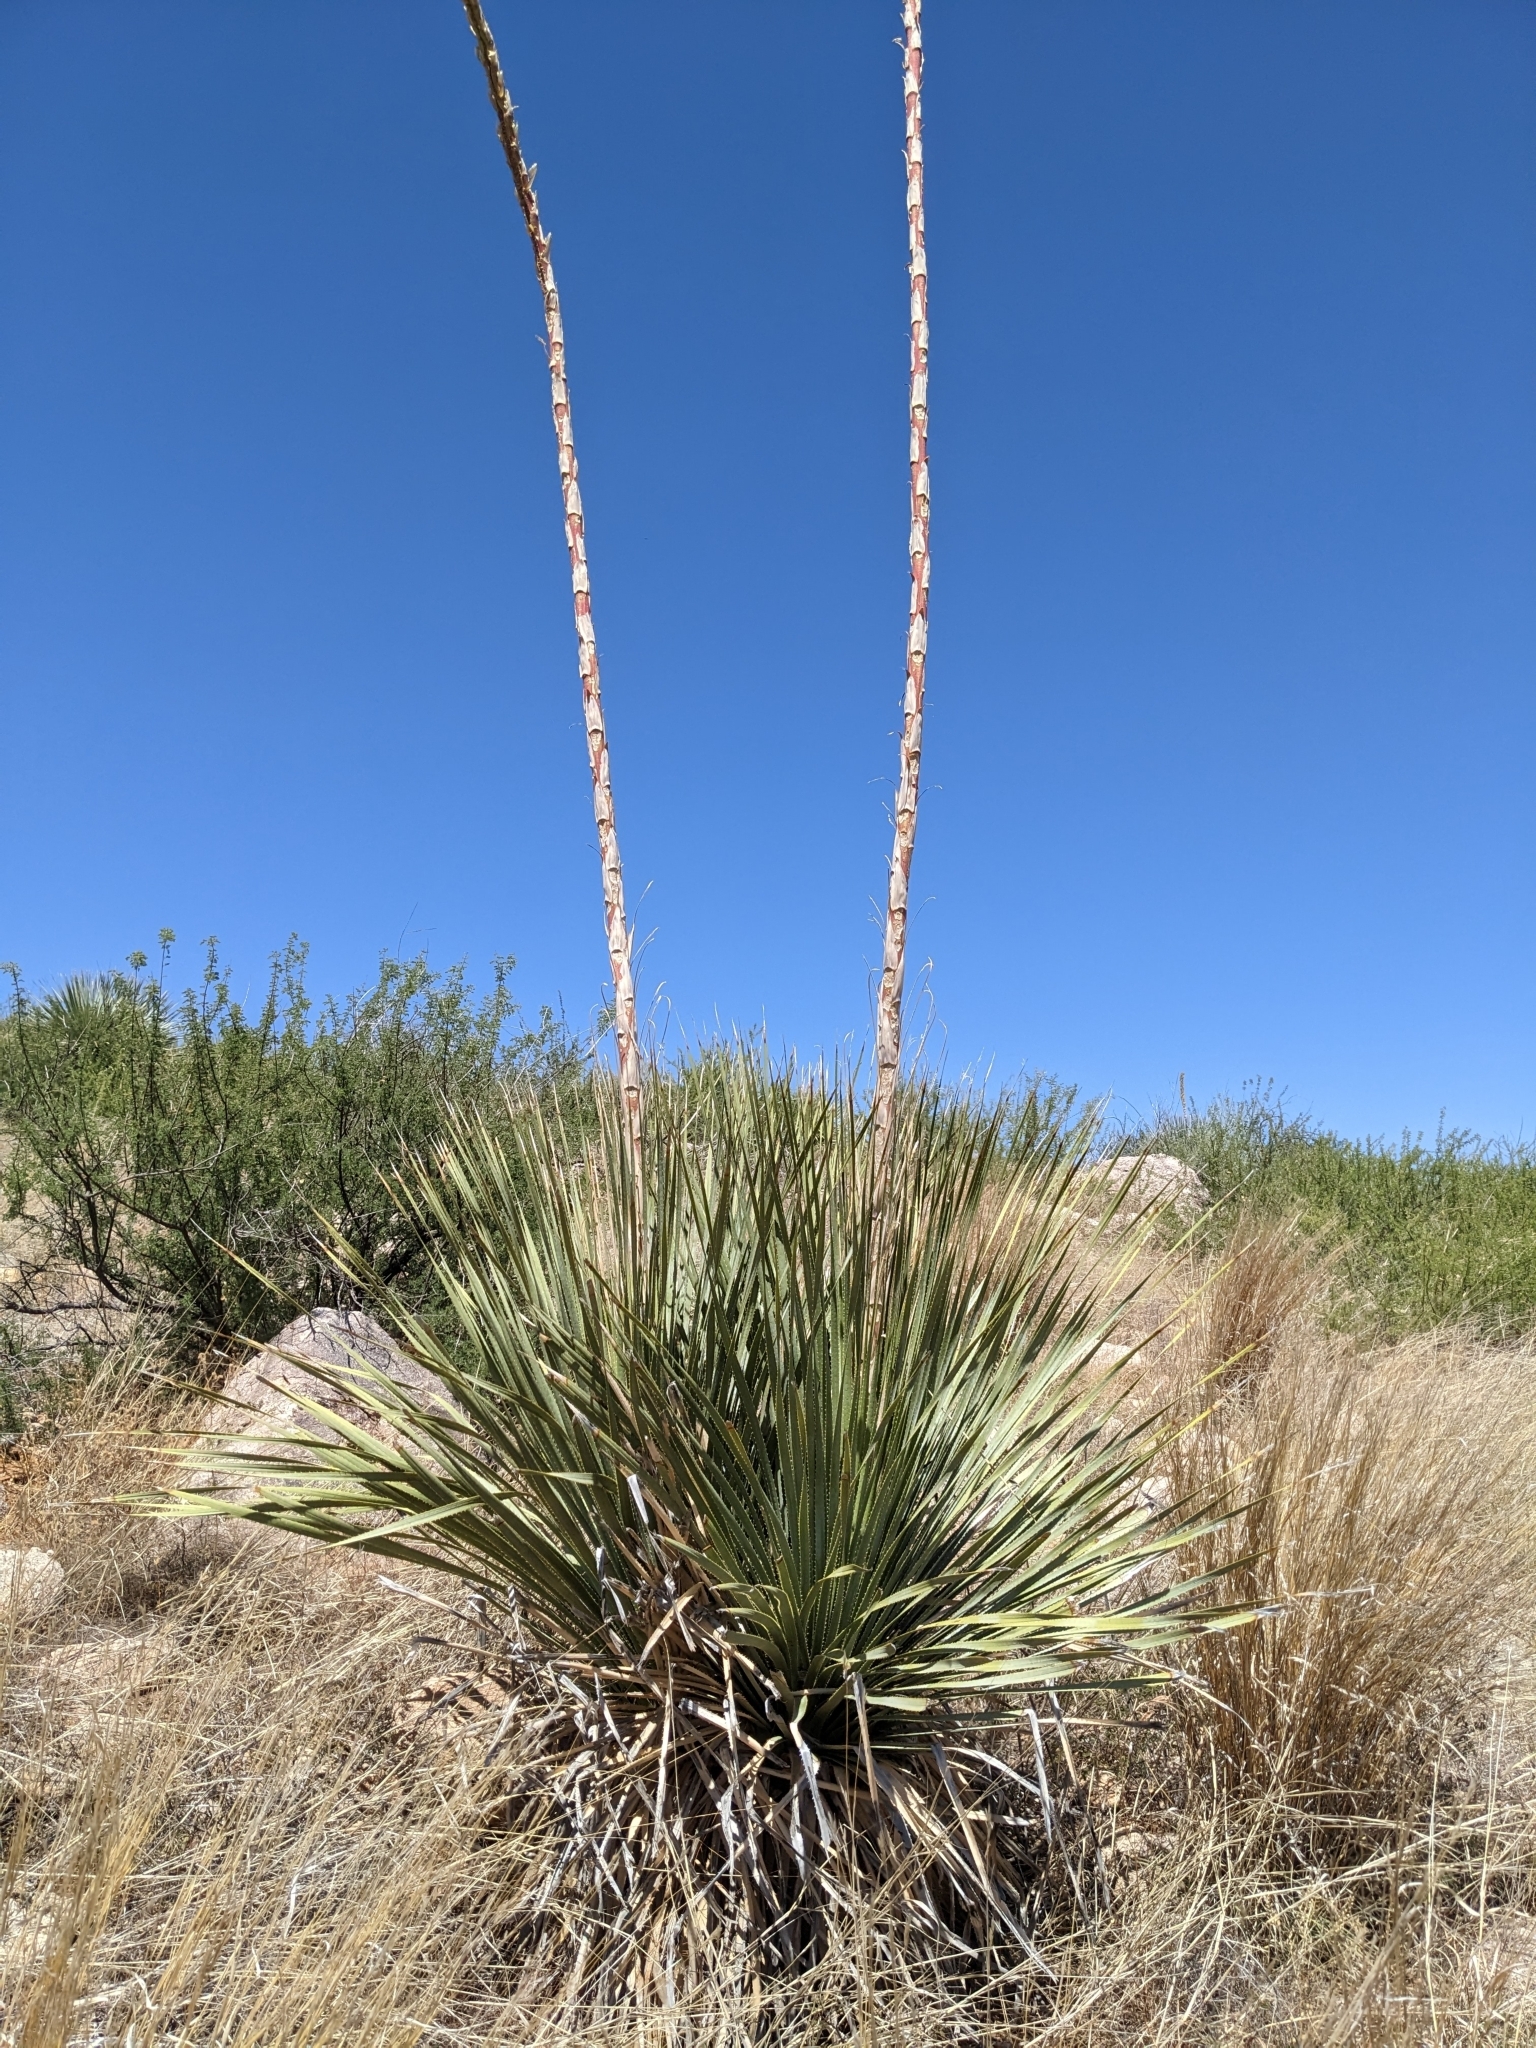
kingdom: Plantae
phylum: Tracheophyta
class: Liliopsida
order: Asparagales
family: Asparagaceae
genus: Dasylirion
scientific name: Dasylirion wheeleri
